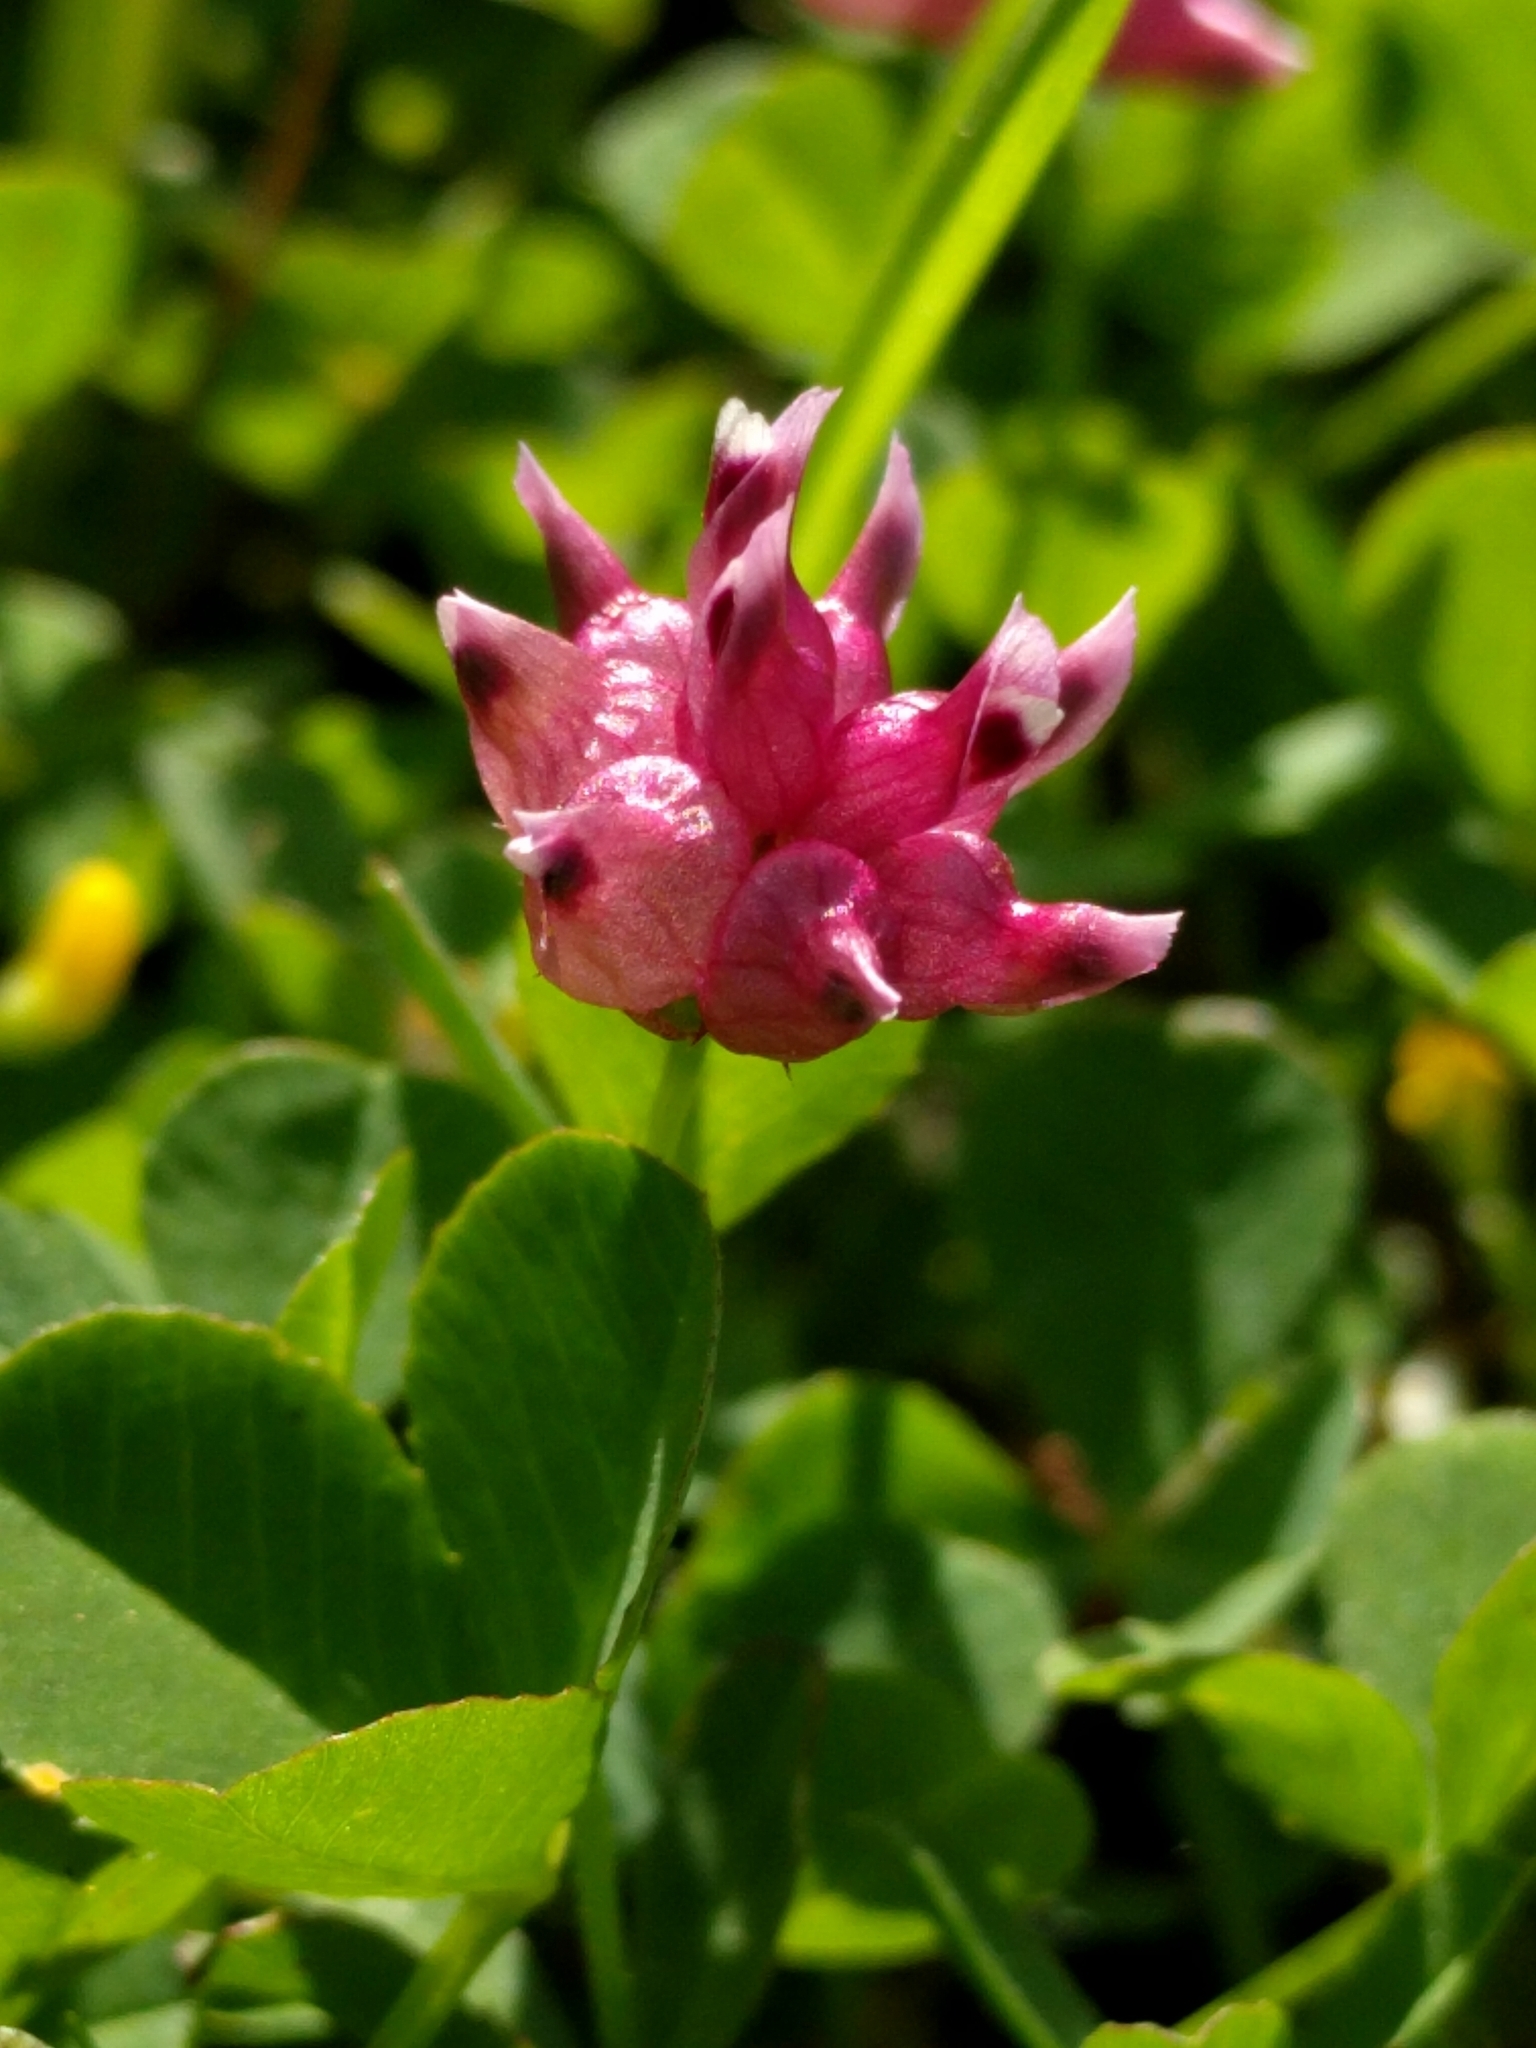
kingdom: Plantae
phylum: Tracheophyta
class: Magnoliopsida
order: Fabales
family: Fabaceae
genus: Trifolium
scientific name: Trifolium depauperatum
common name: Poverty clover
